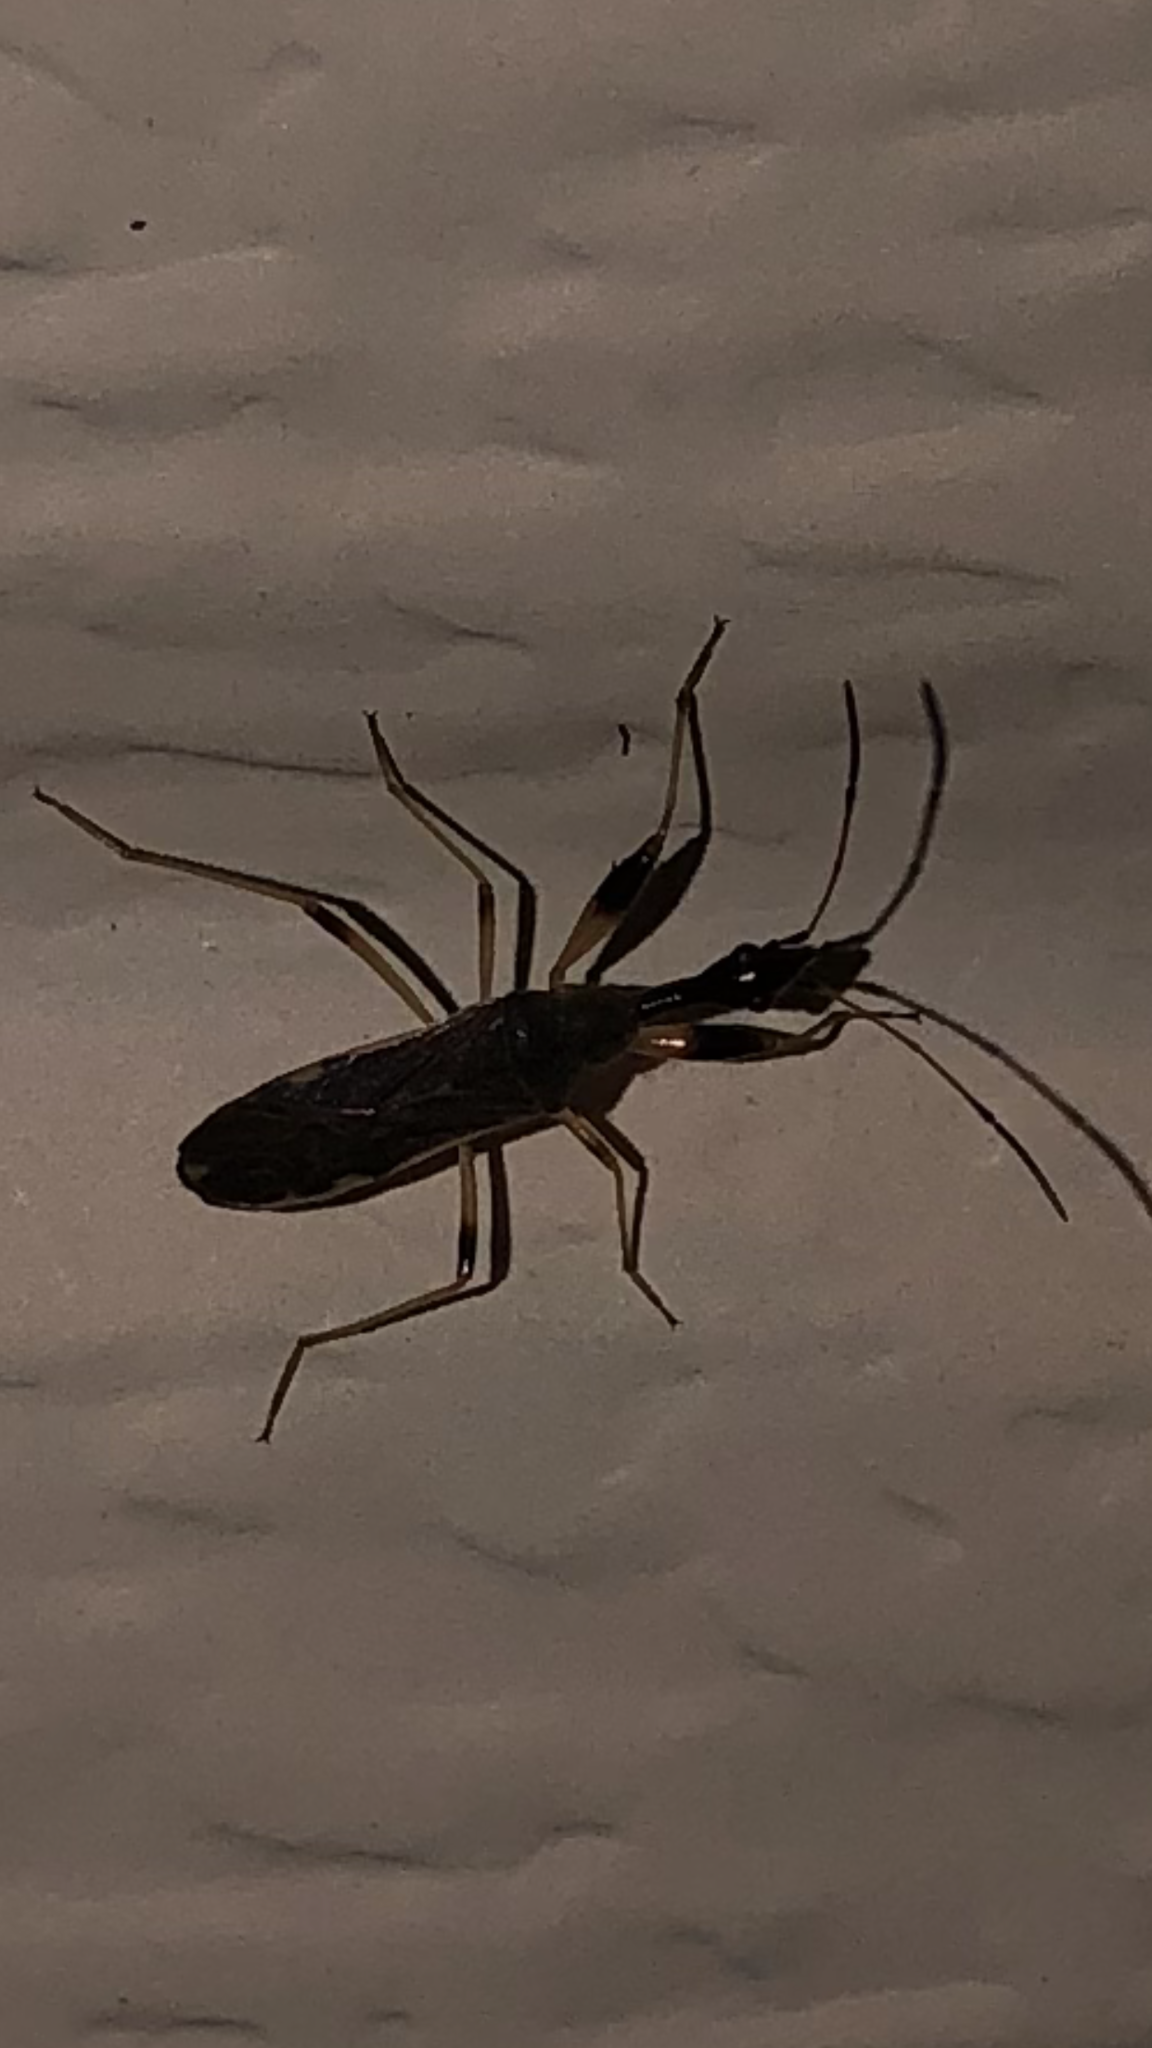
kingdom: Animalia
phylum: Arthropoda
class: Insecta
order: Hemiptera
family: Rhyparochromidae
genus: Myodocha
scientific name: Myodocha serripes
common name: Long-necked seed bug
